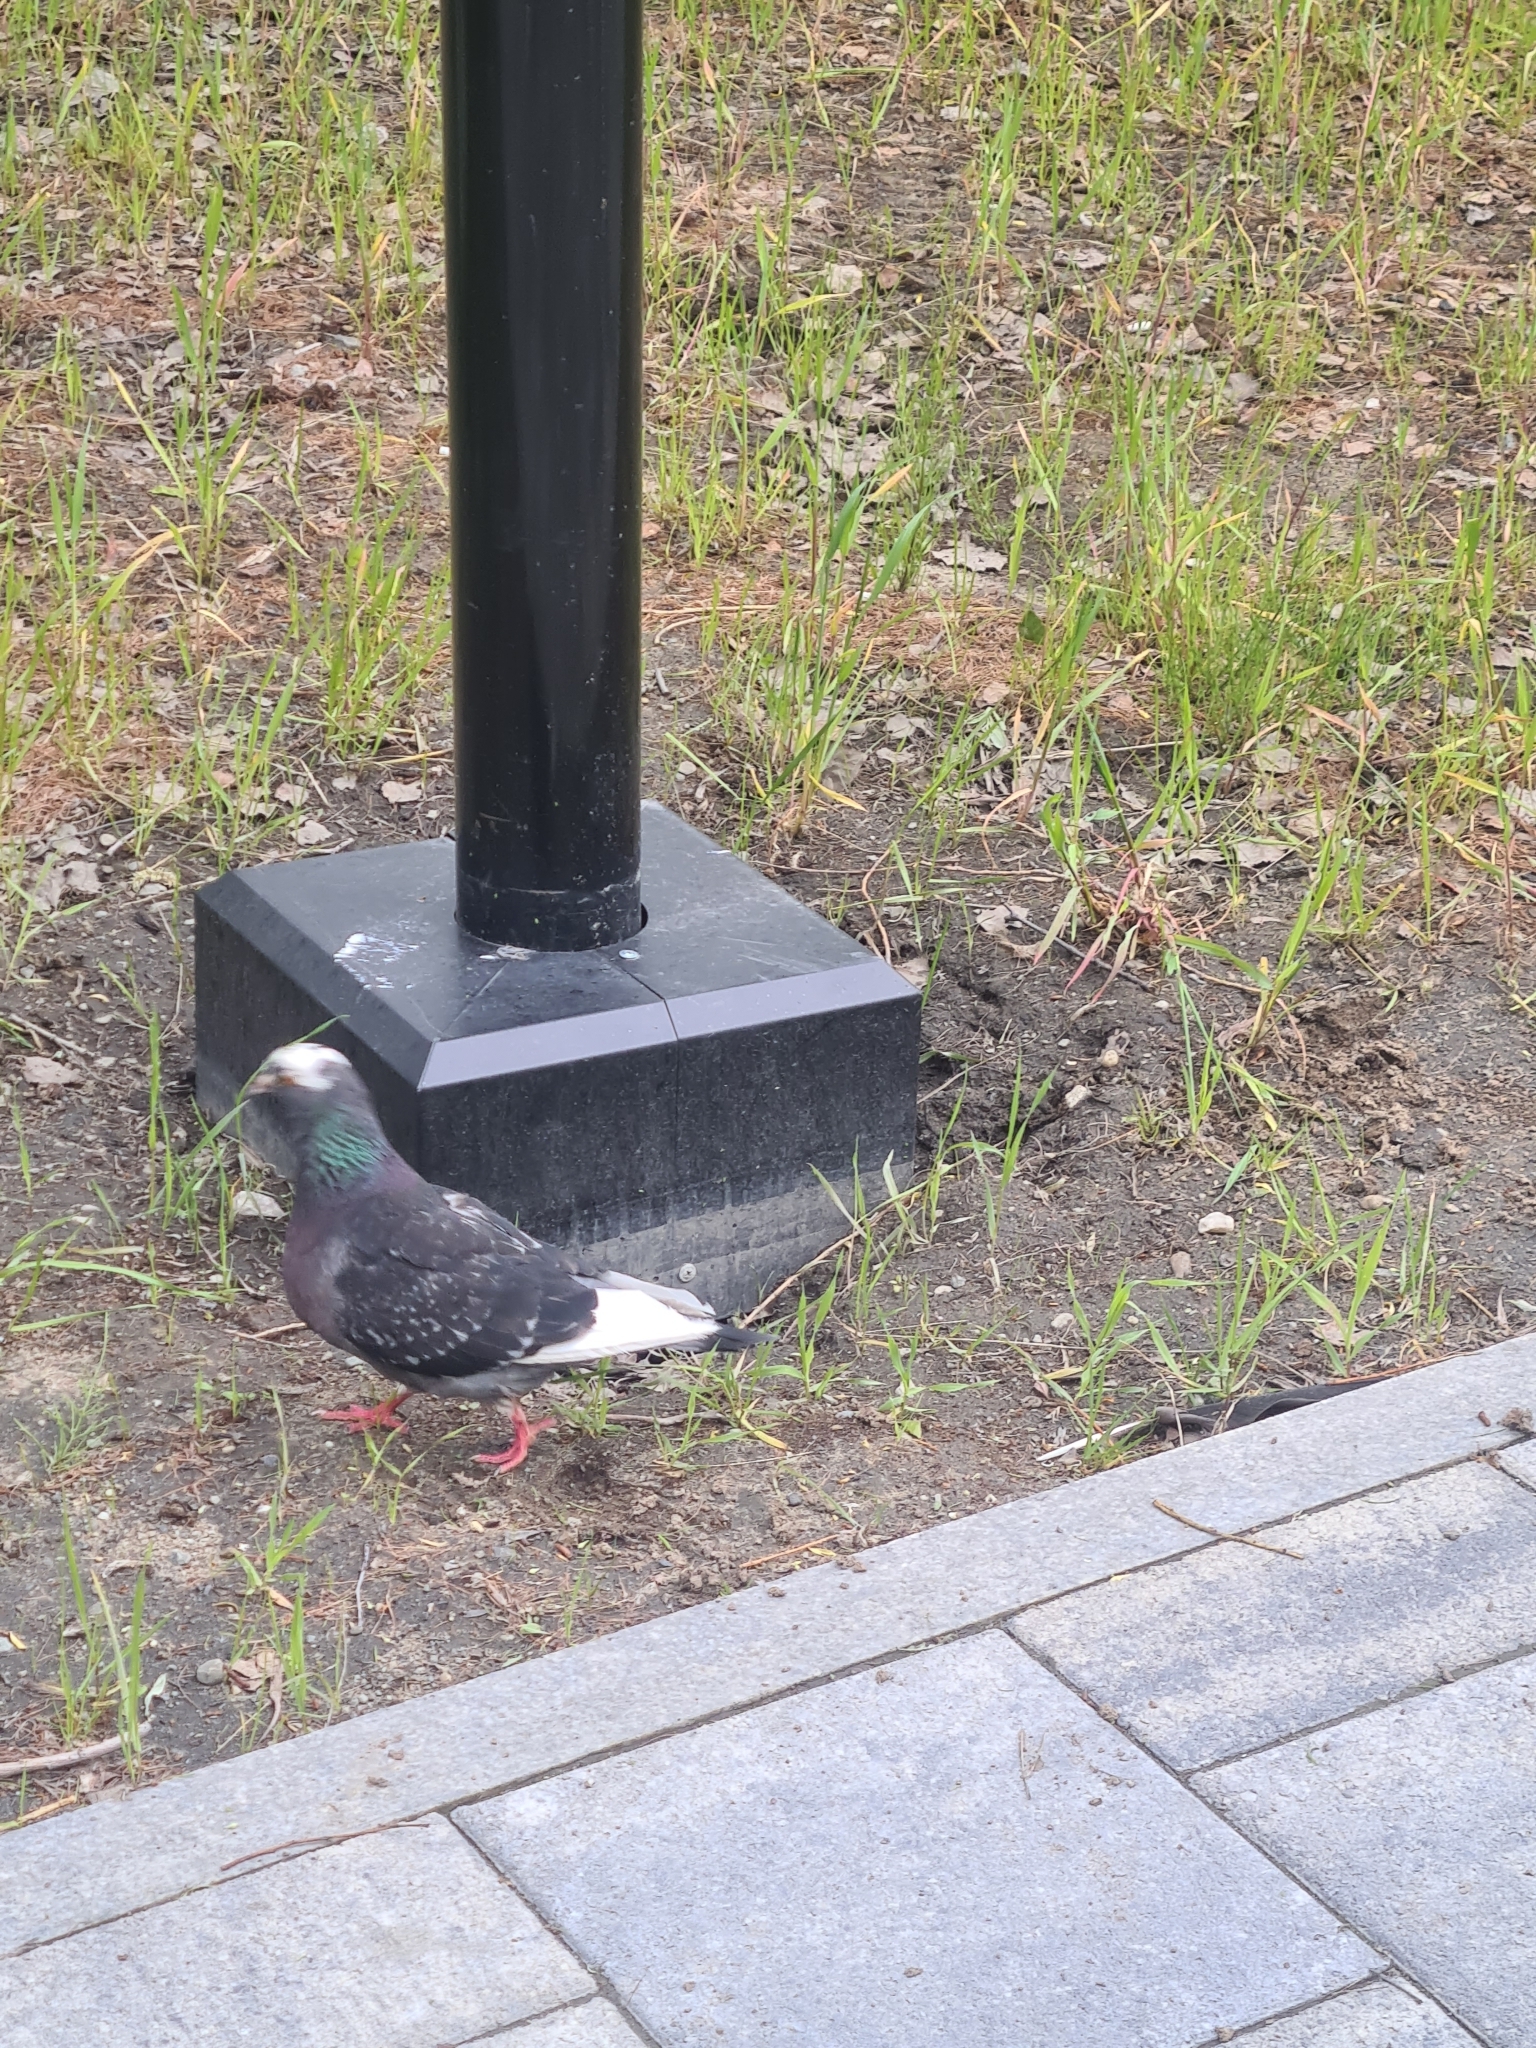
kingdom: Animalia
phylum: Chordata
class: Aves
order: Columbiformes
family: Columbidae
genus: Columba
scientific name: Columba livia
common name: Rock pigeon
